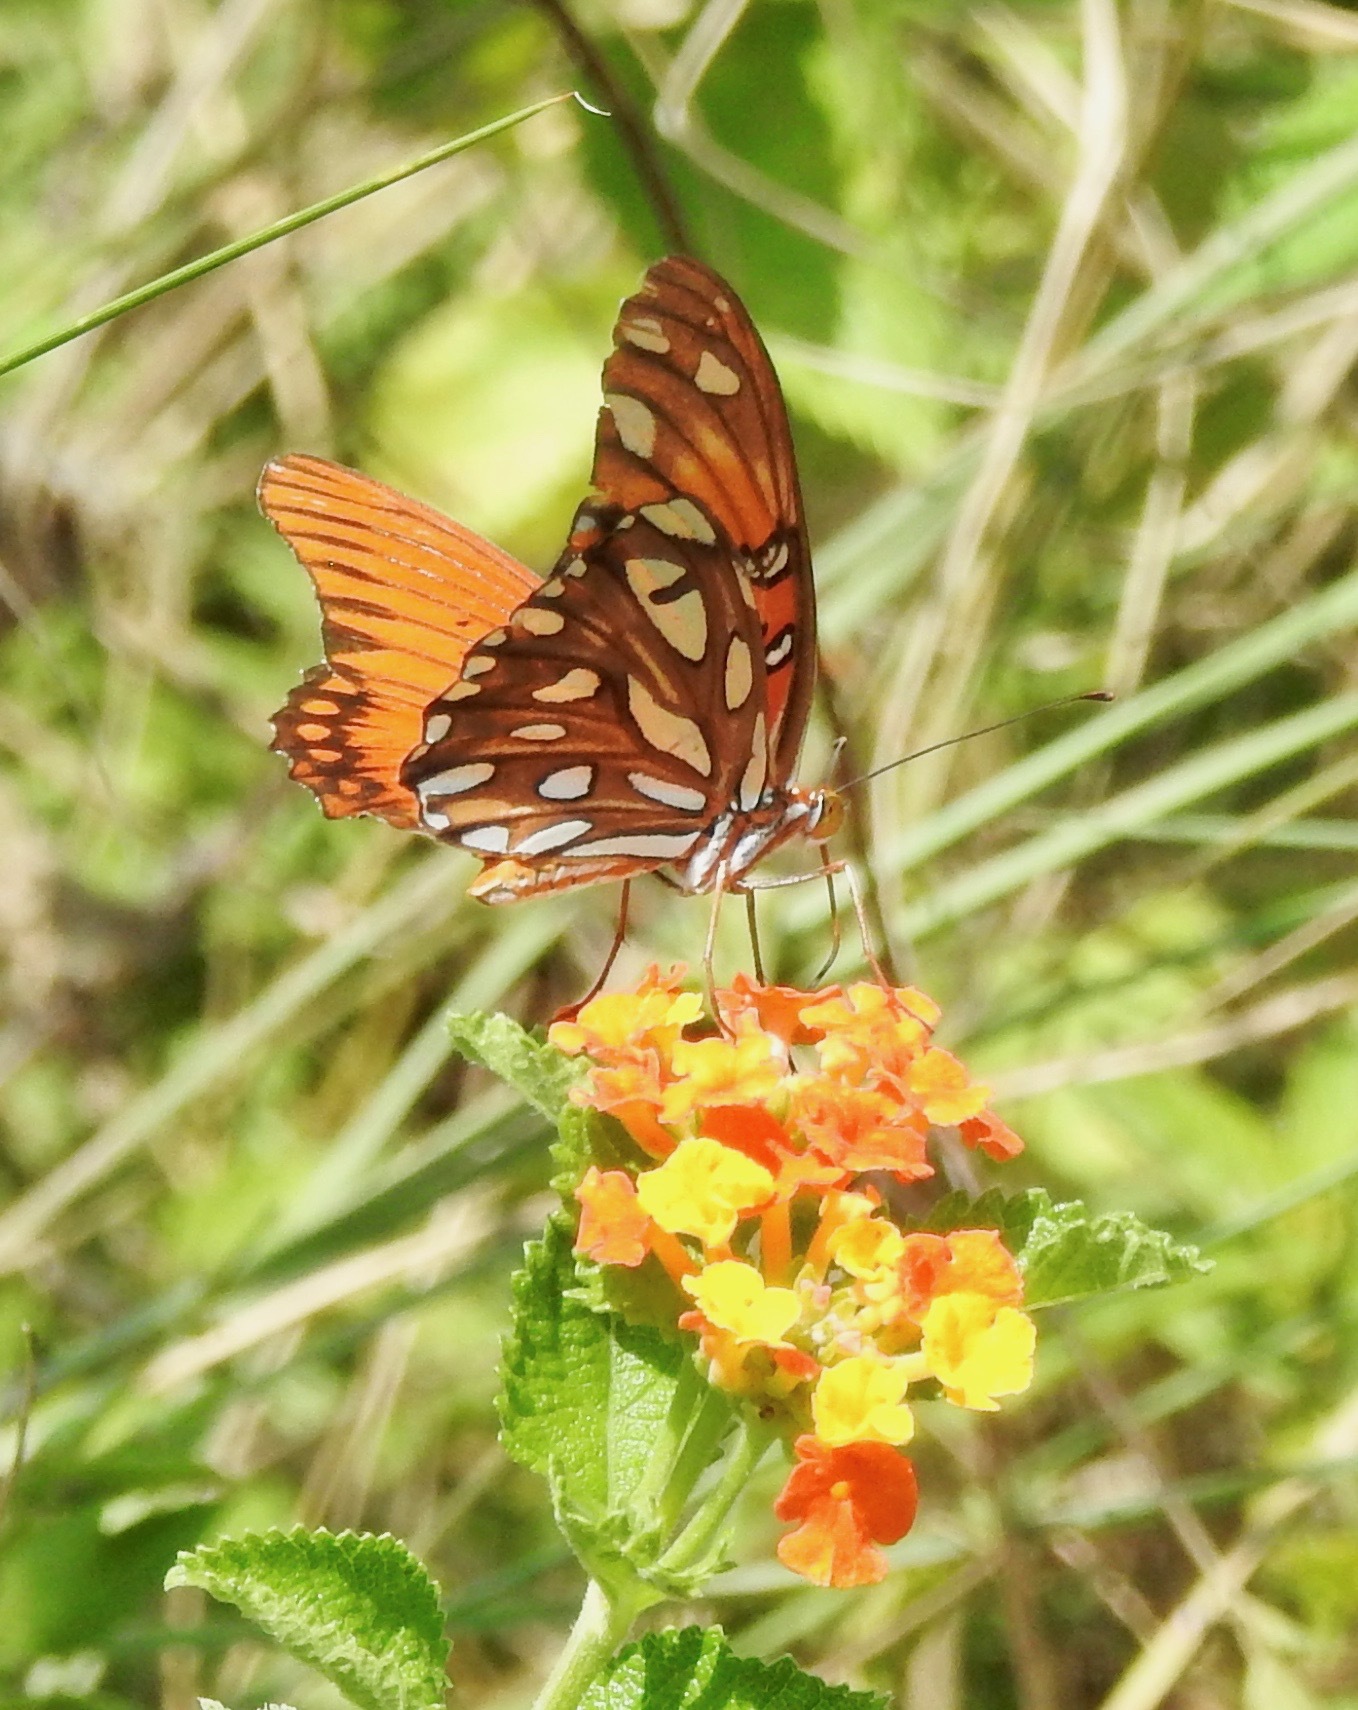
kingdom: Animalia
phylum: Arthropoda
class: Insecta
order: Lepidoptera
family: Nymphalidae
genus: Dione
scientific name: Dione vanillae
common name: Gulf fritillary
